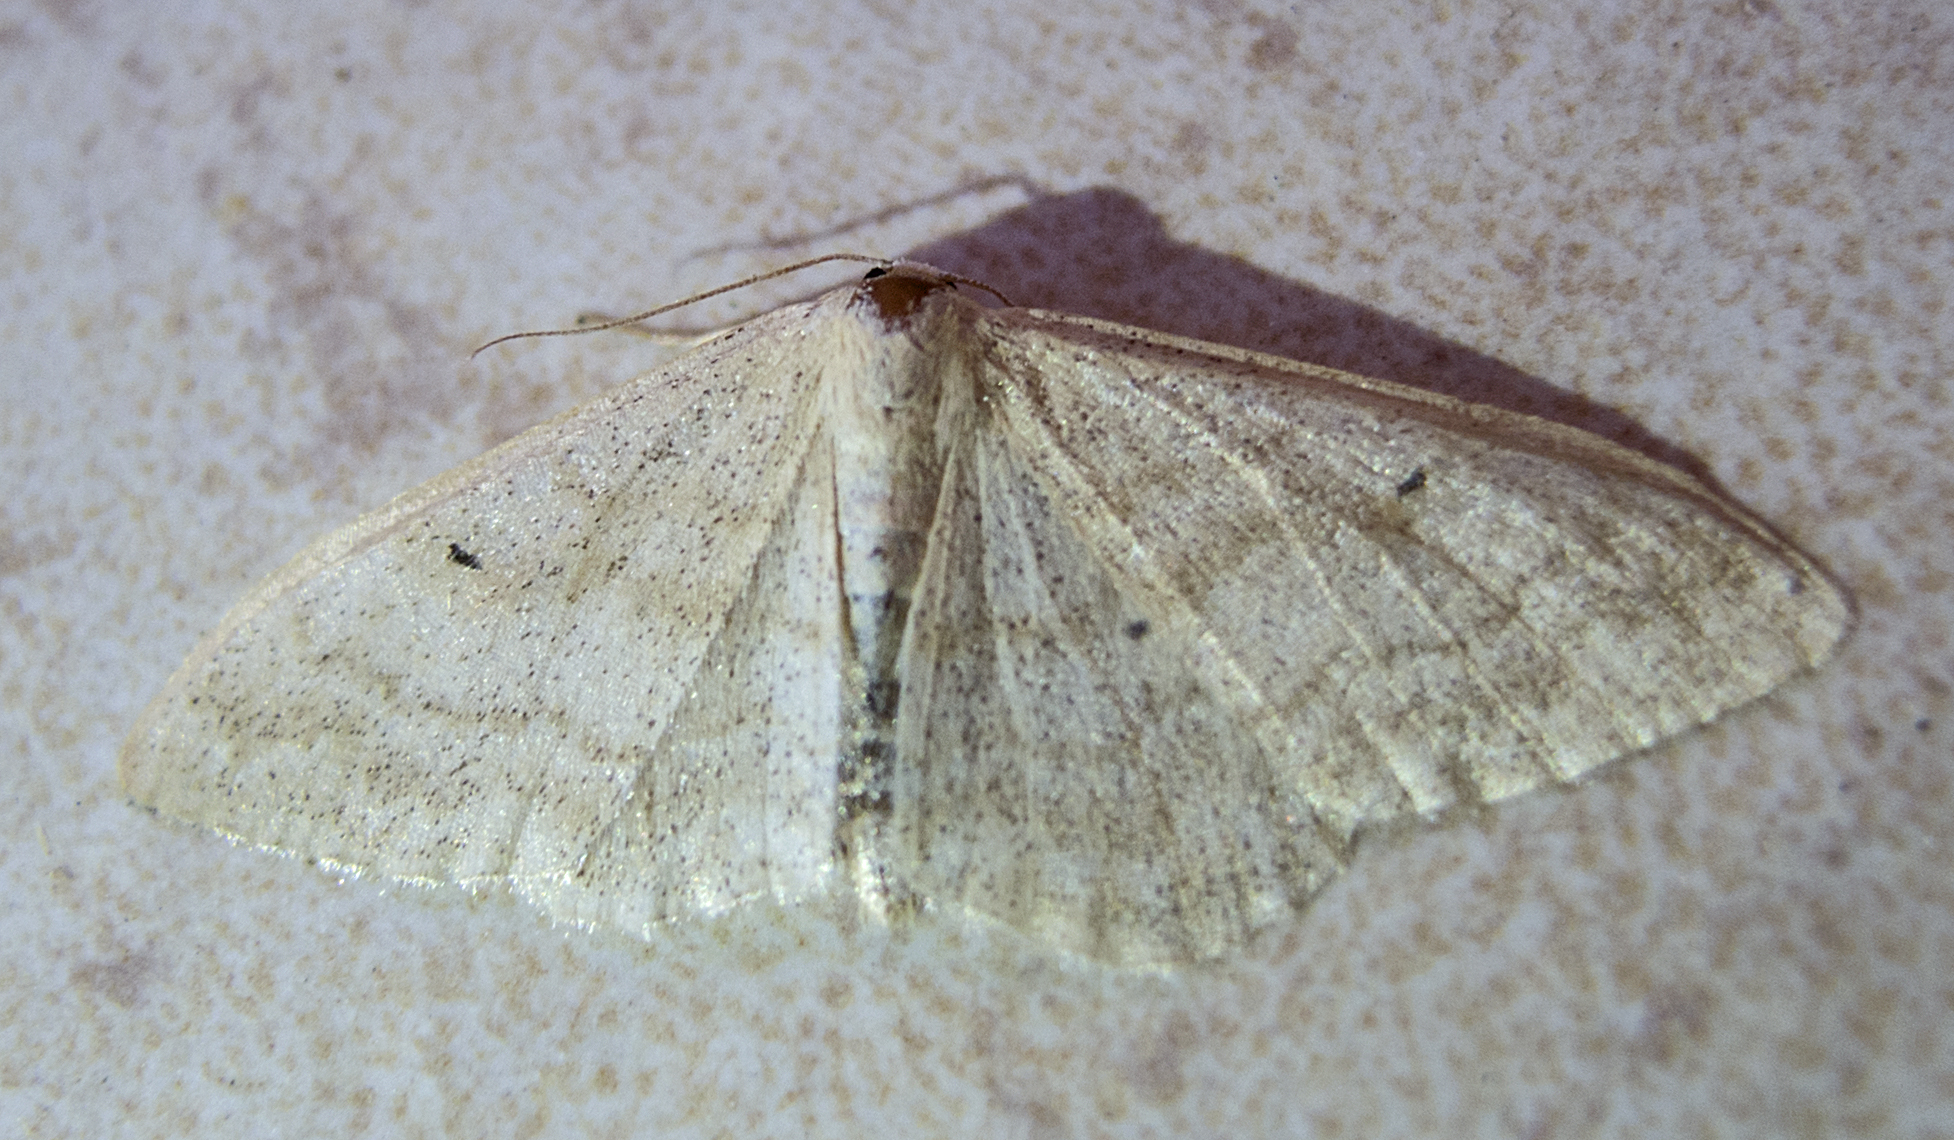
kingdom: Animalia
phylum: Arthropoda
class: Insecta
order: Lepidoptera
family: Geometridae
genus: Idaea
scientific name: Idaea maritimaria
